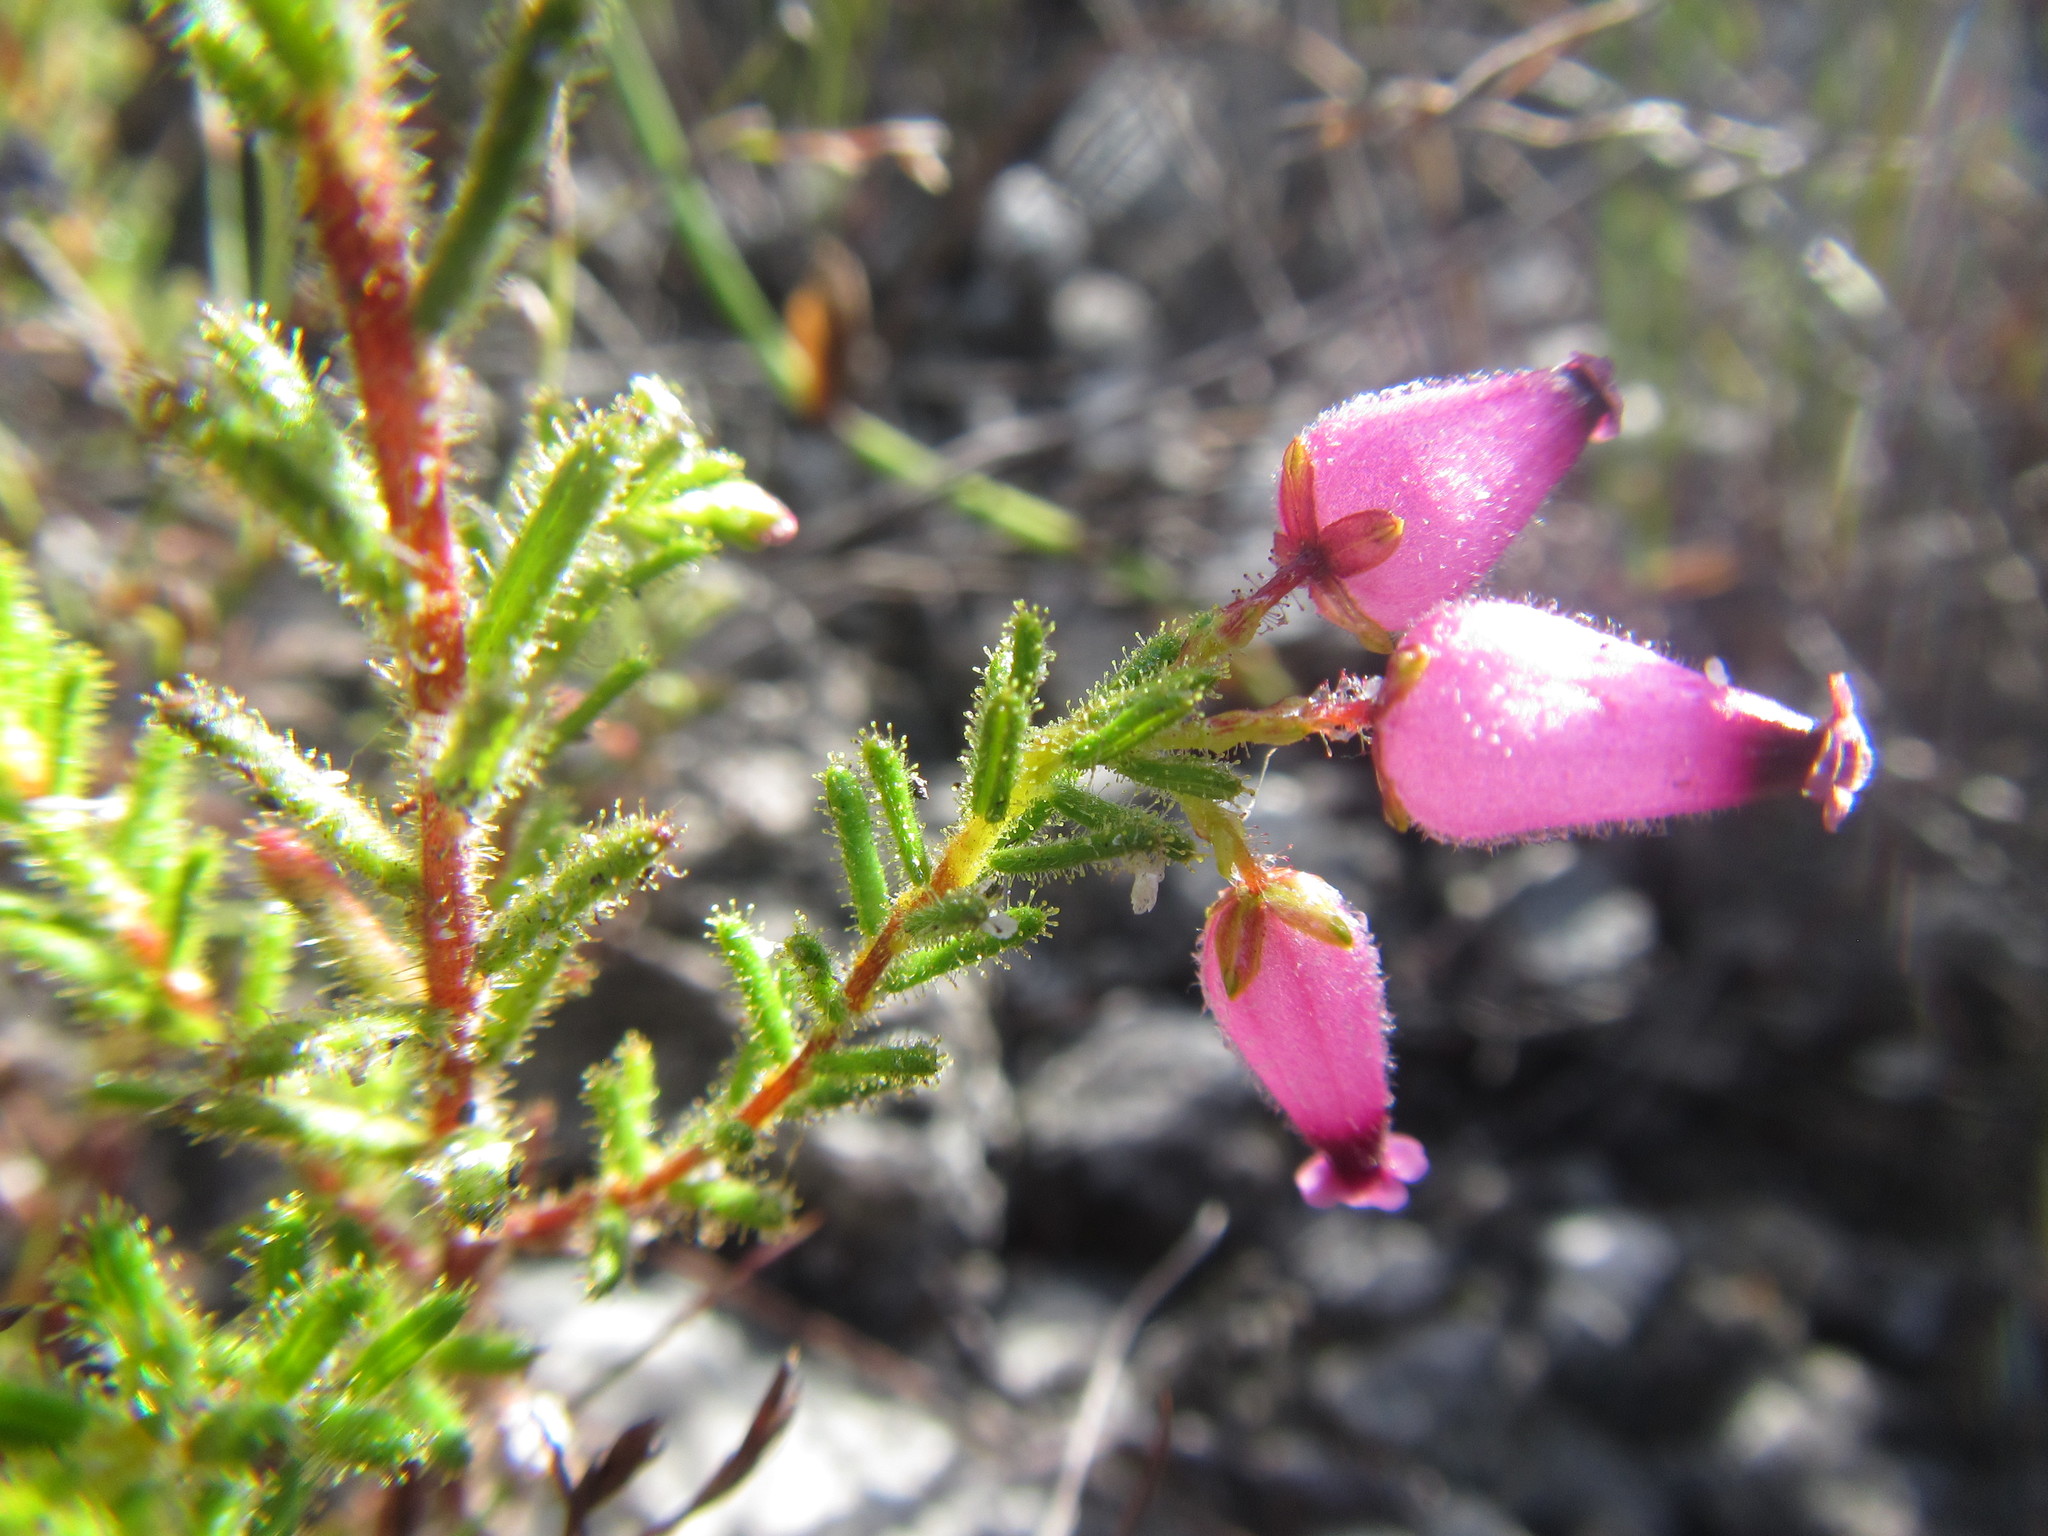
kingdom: Plantae
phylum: Tracheophyta
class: Magnoliopsida
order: Ericales
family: Ericaceae
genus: Erica
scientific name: Erica glutinosa
